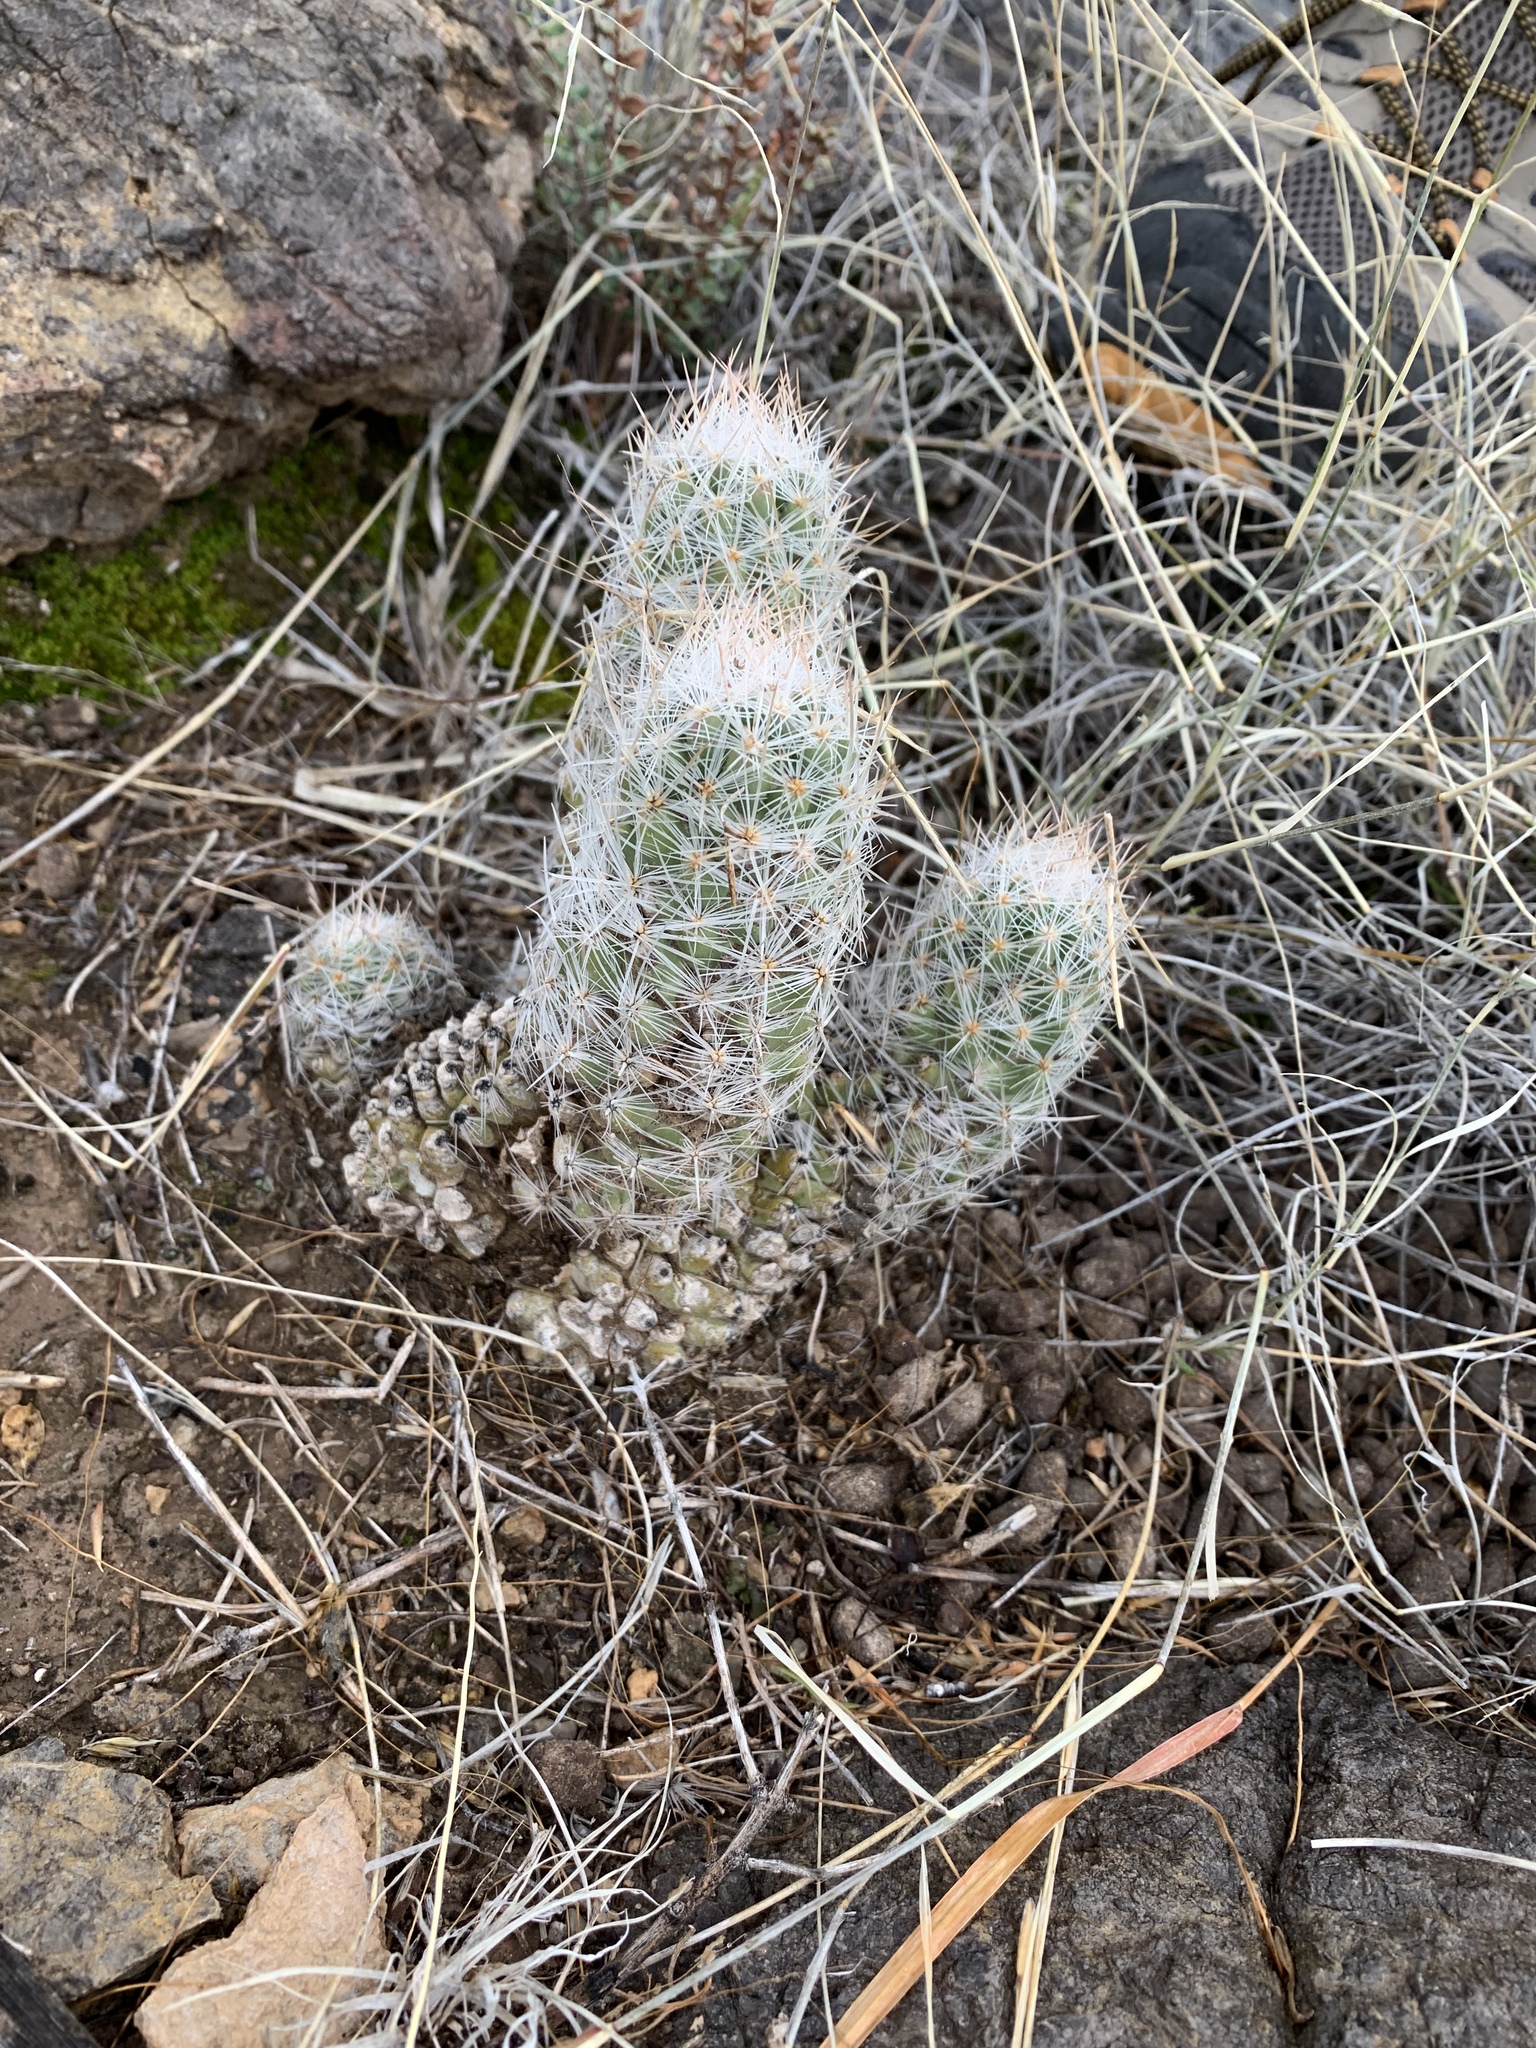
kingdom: Plantae
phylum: Tracheophyta
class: Magnoliopsida
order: Caryophyllales
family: Cactaceae
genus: Pelecyphora
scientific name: Pelecyphora tuberculosa
